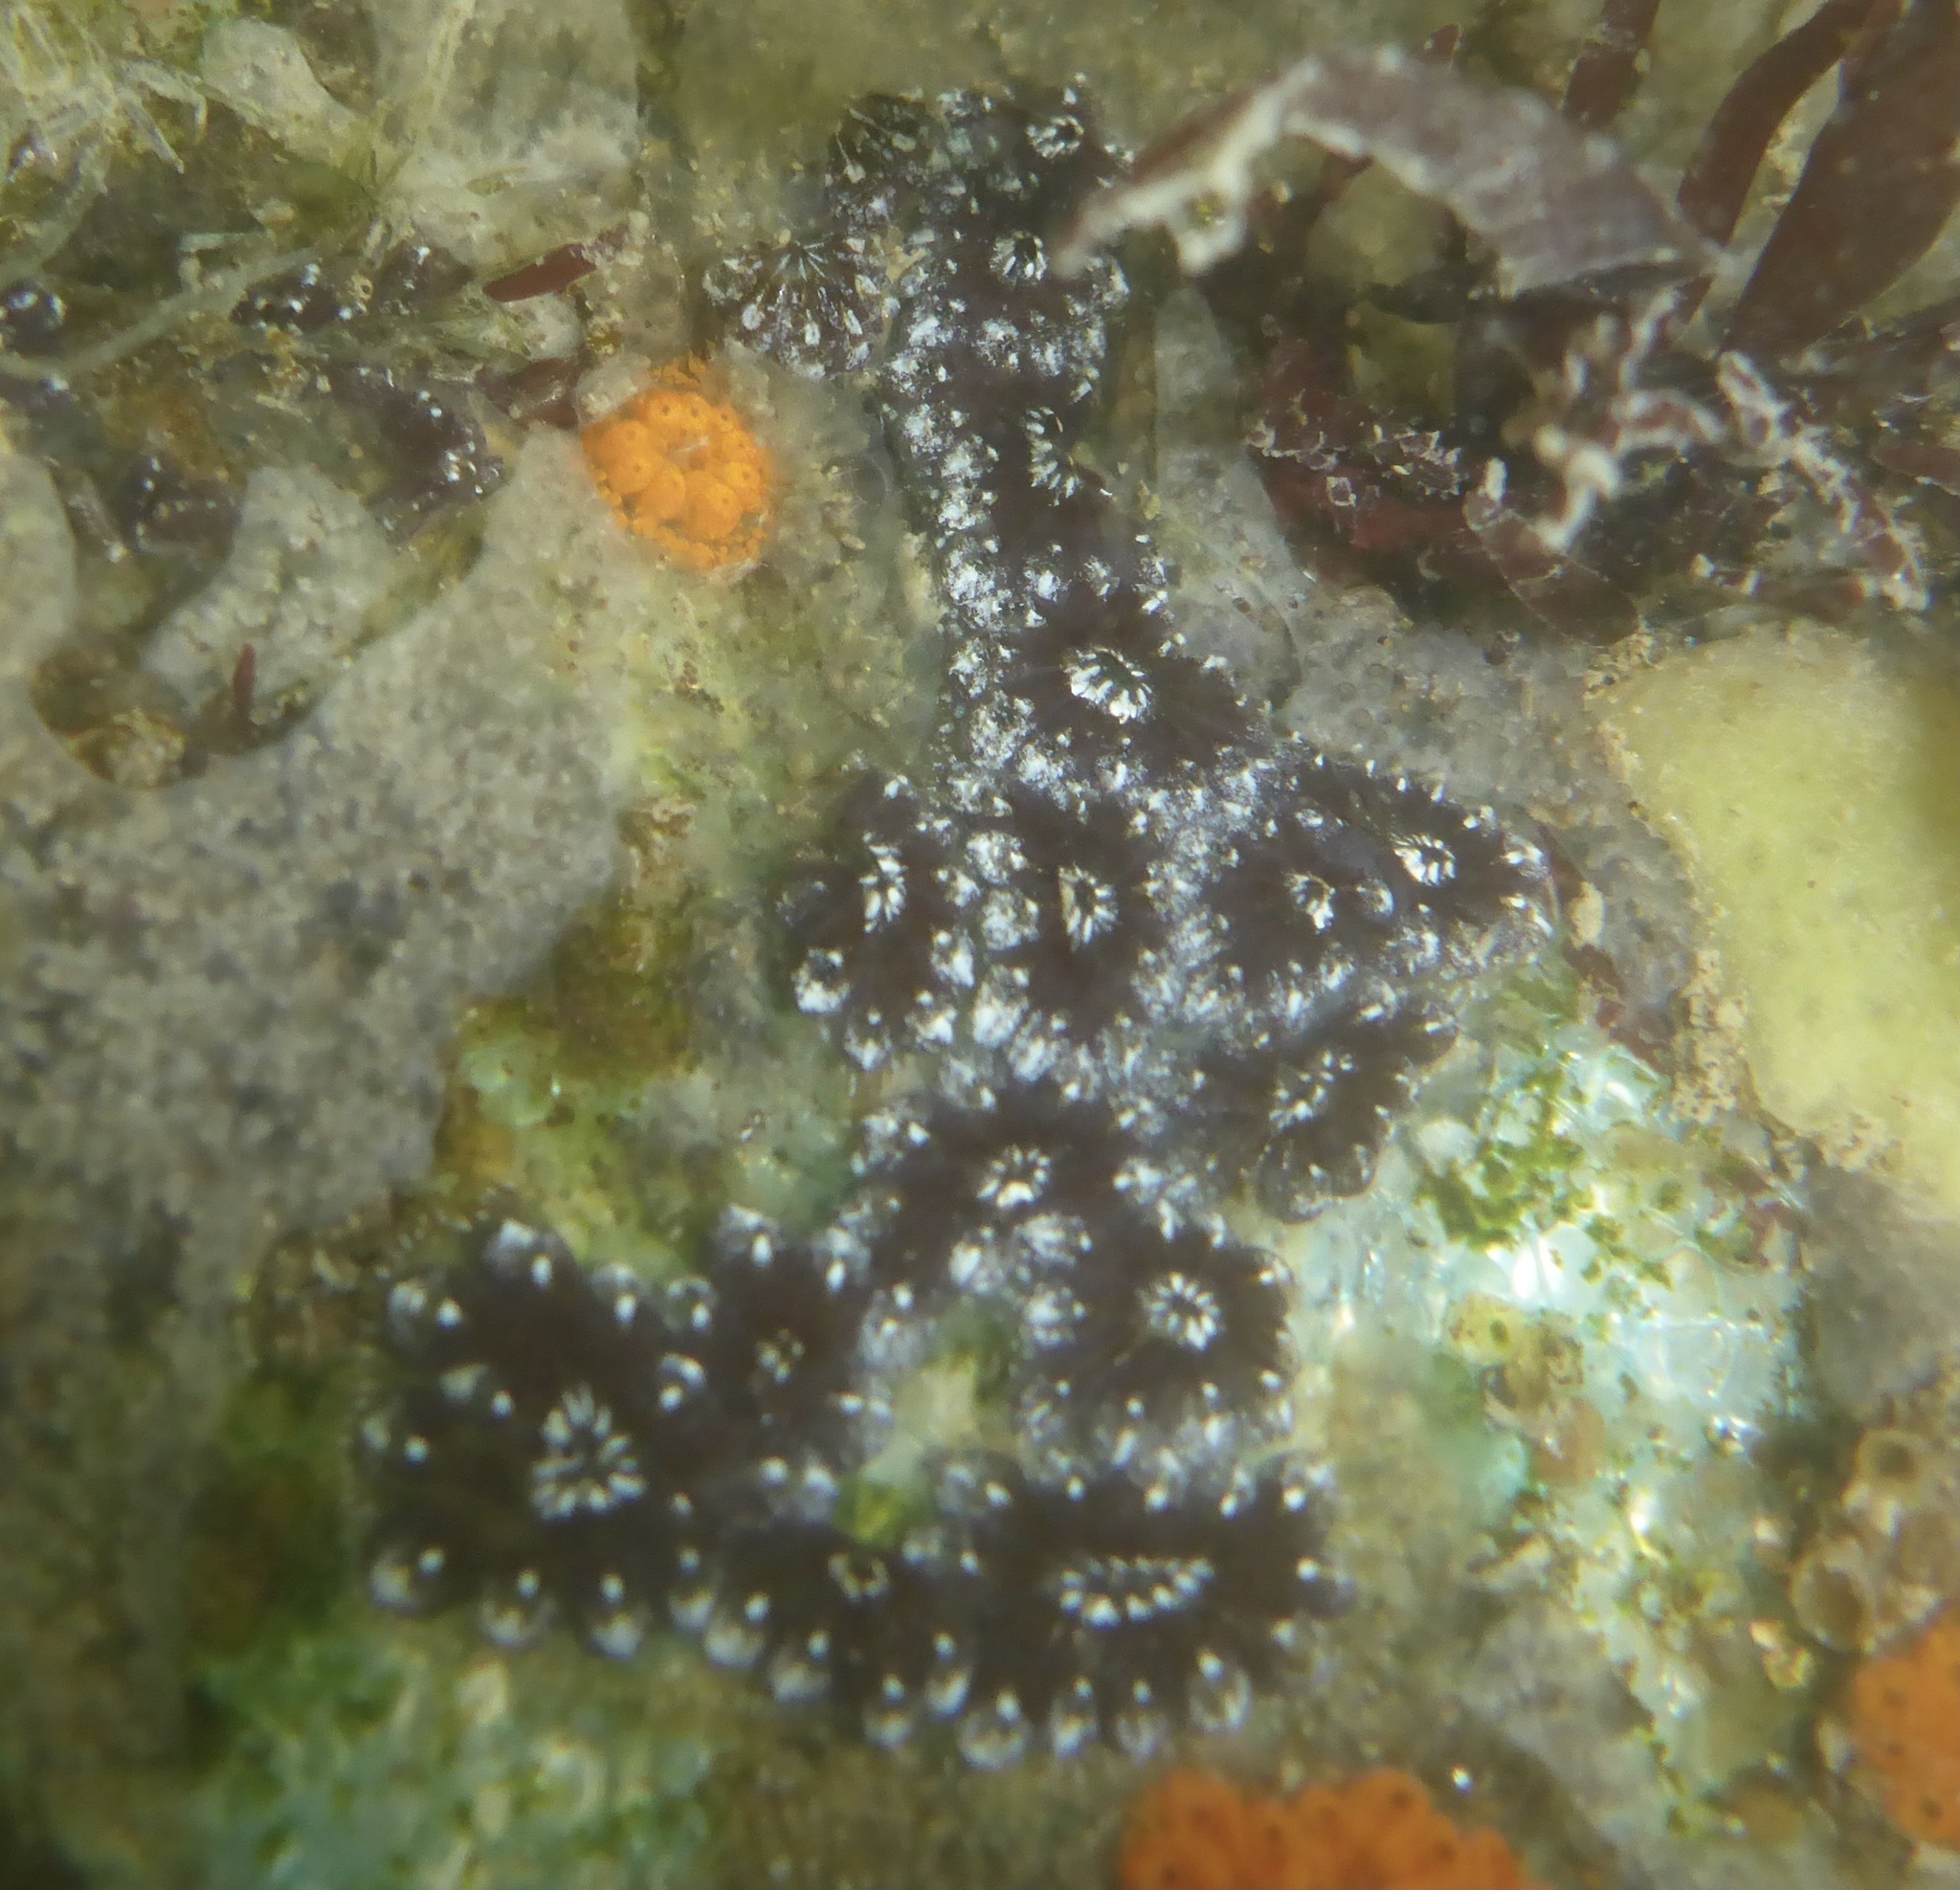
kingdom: Animalia
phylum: Chordata
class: Ascidiacea
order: Stolidobranchia
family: Styelidae
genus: Botryllus
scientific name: Botryllus schlosseri
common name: Golden star tunicate
